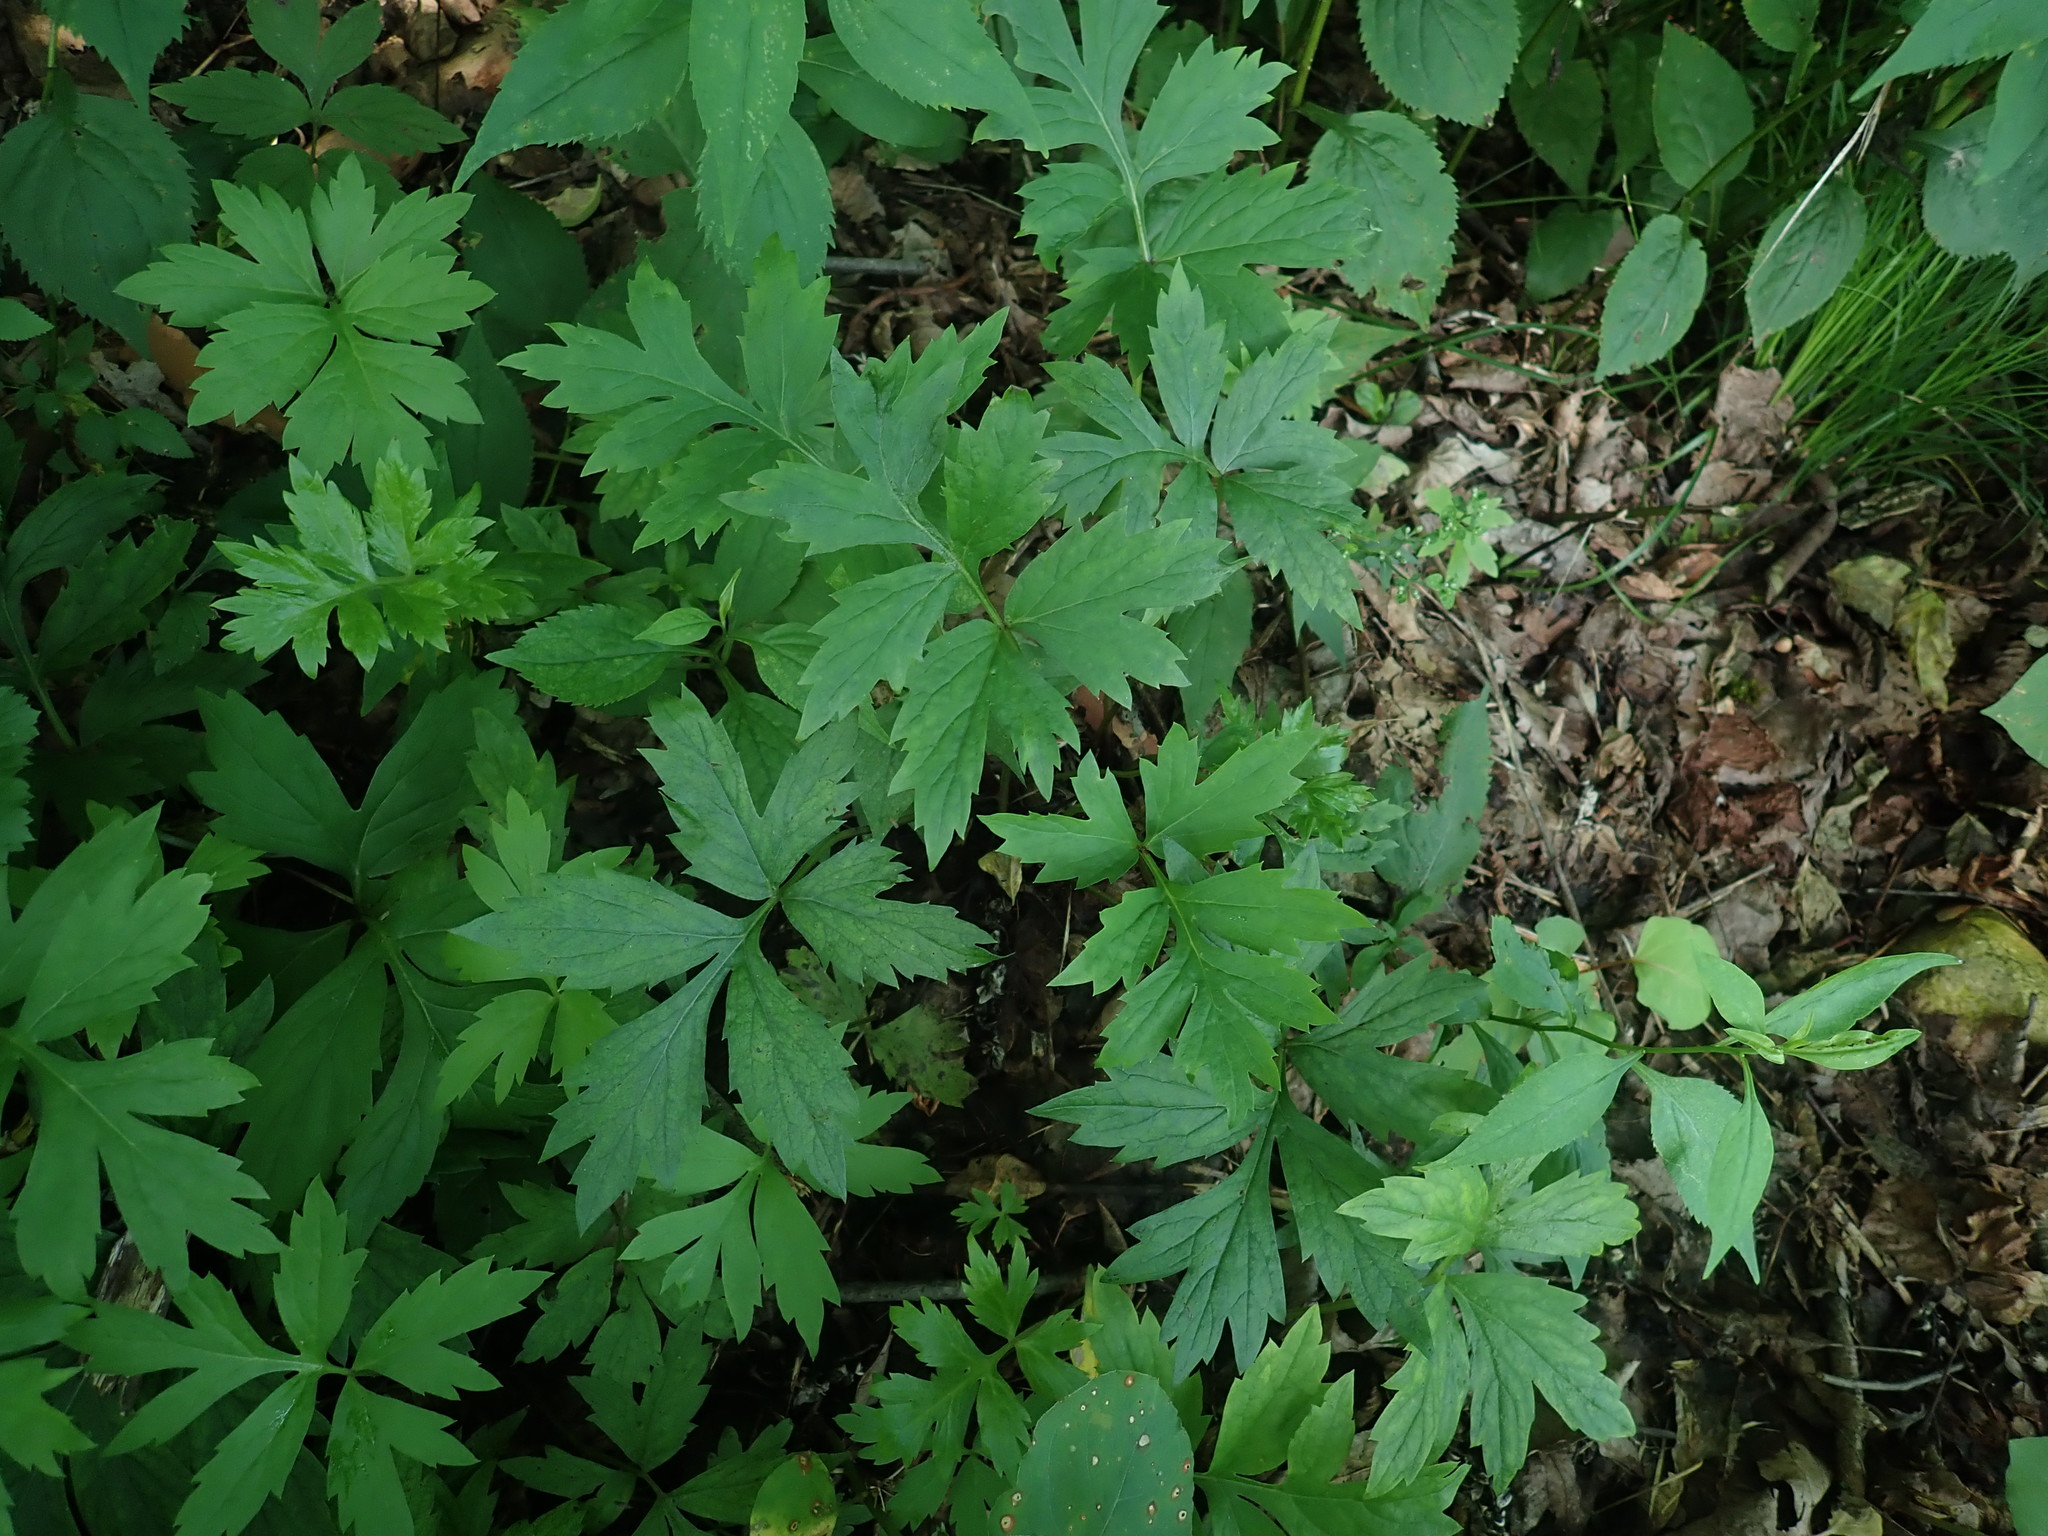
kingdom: Plantae
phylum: Tracheophyta
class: Magnoliopsida
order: Boraginales
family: Hydrophyllaceae
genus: Hydrophyllum
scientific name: Hydrophyllum virginianum
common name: Virginia waterleaf
